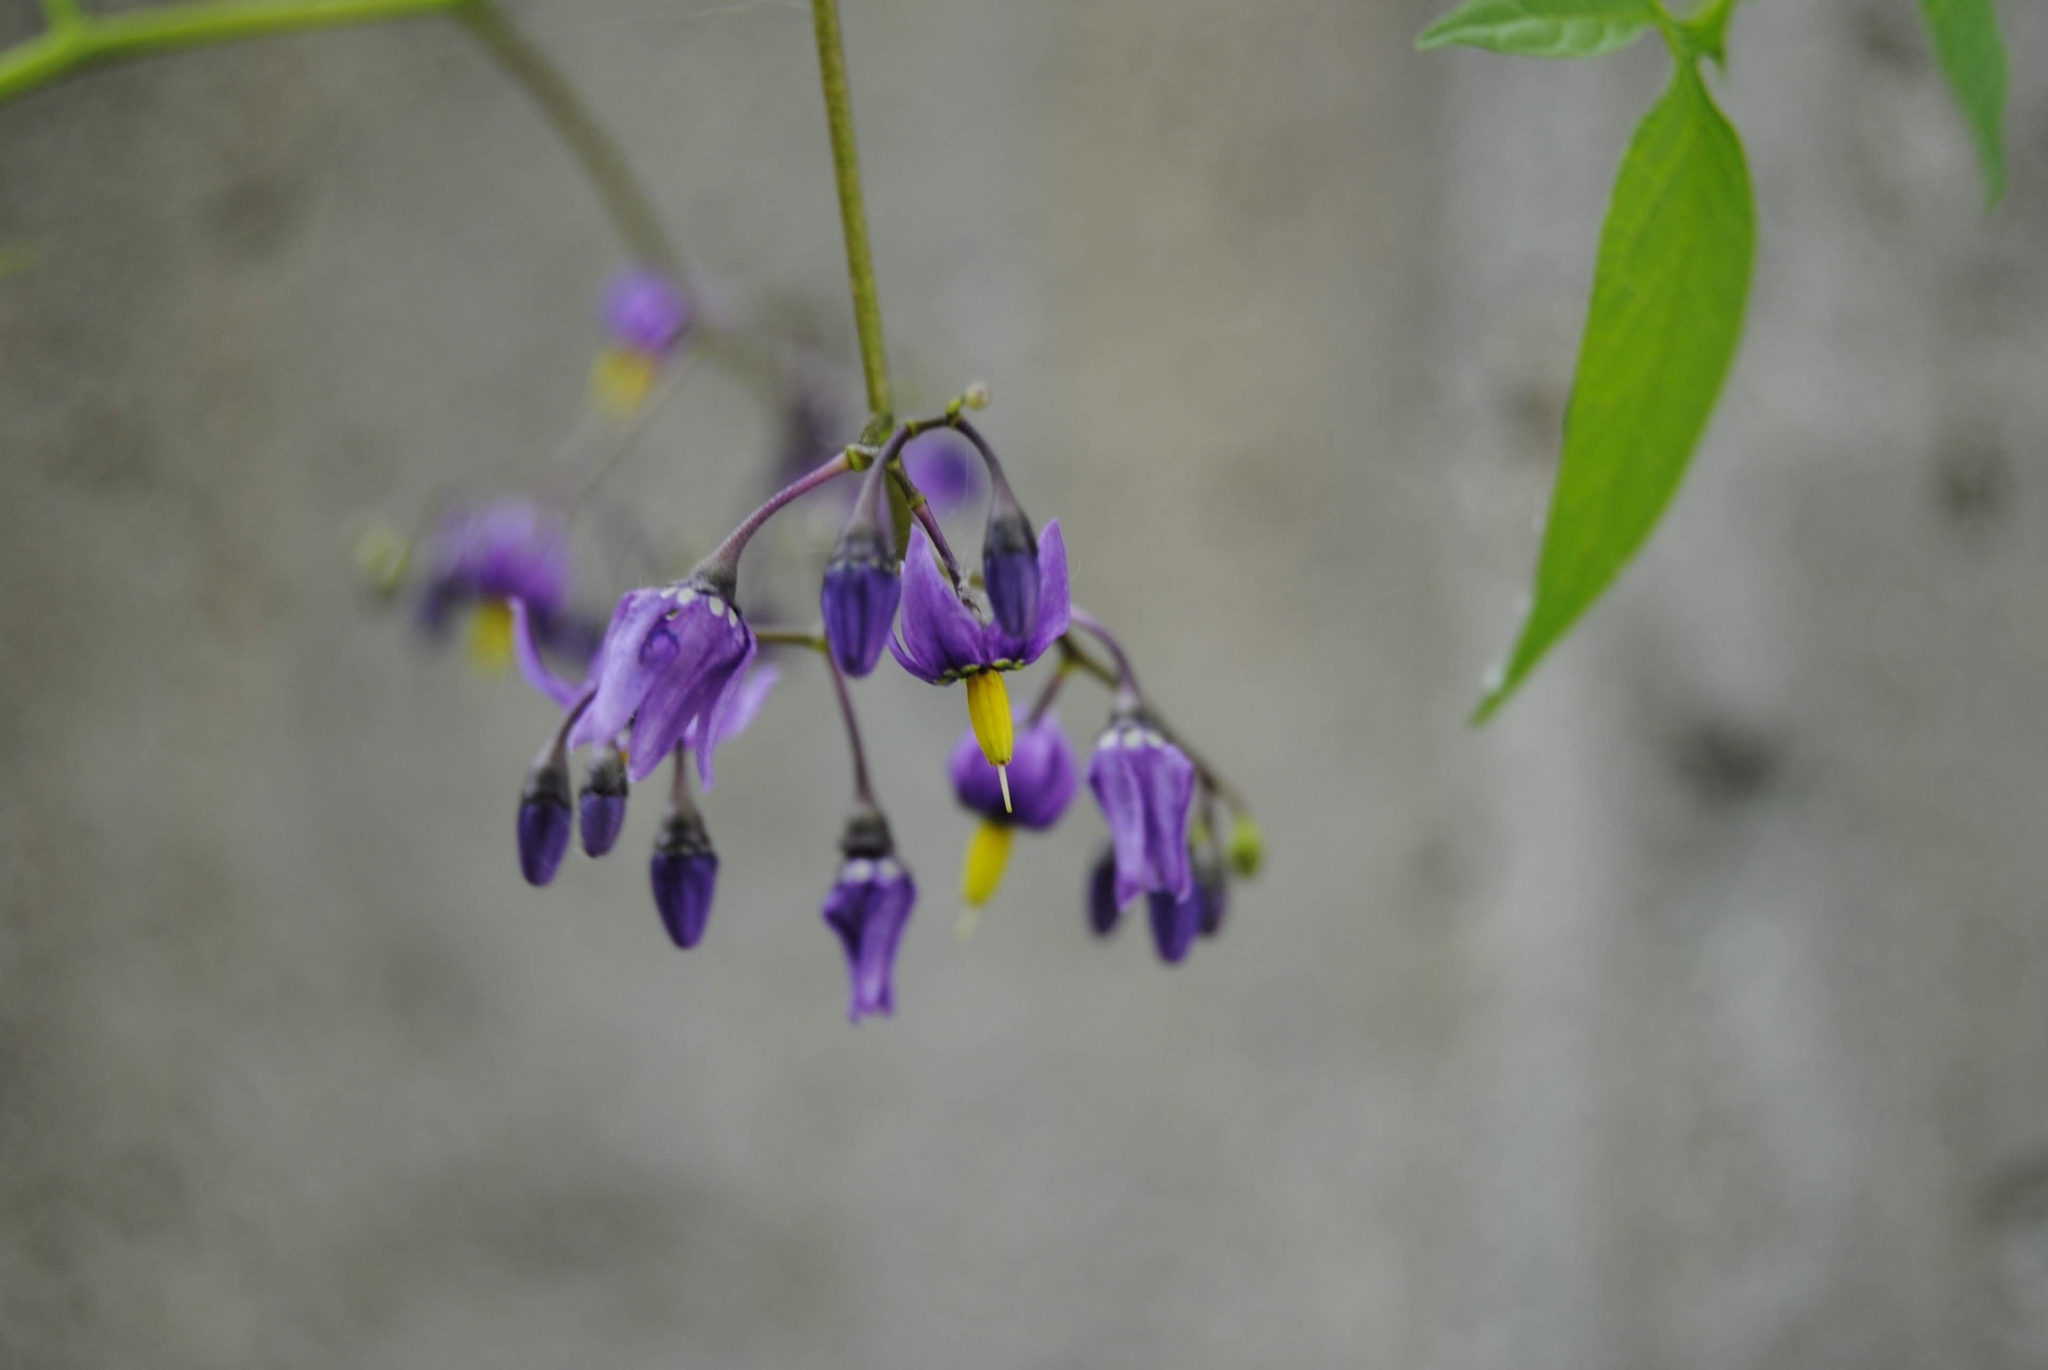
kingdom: Plantae
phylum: Tracheophyta
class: Magnoliopsida
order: Solanales
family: Solanaceae
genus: Solanum
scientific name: Solanum dulcamara
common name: Climbing nightshade
